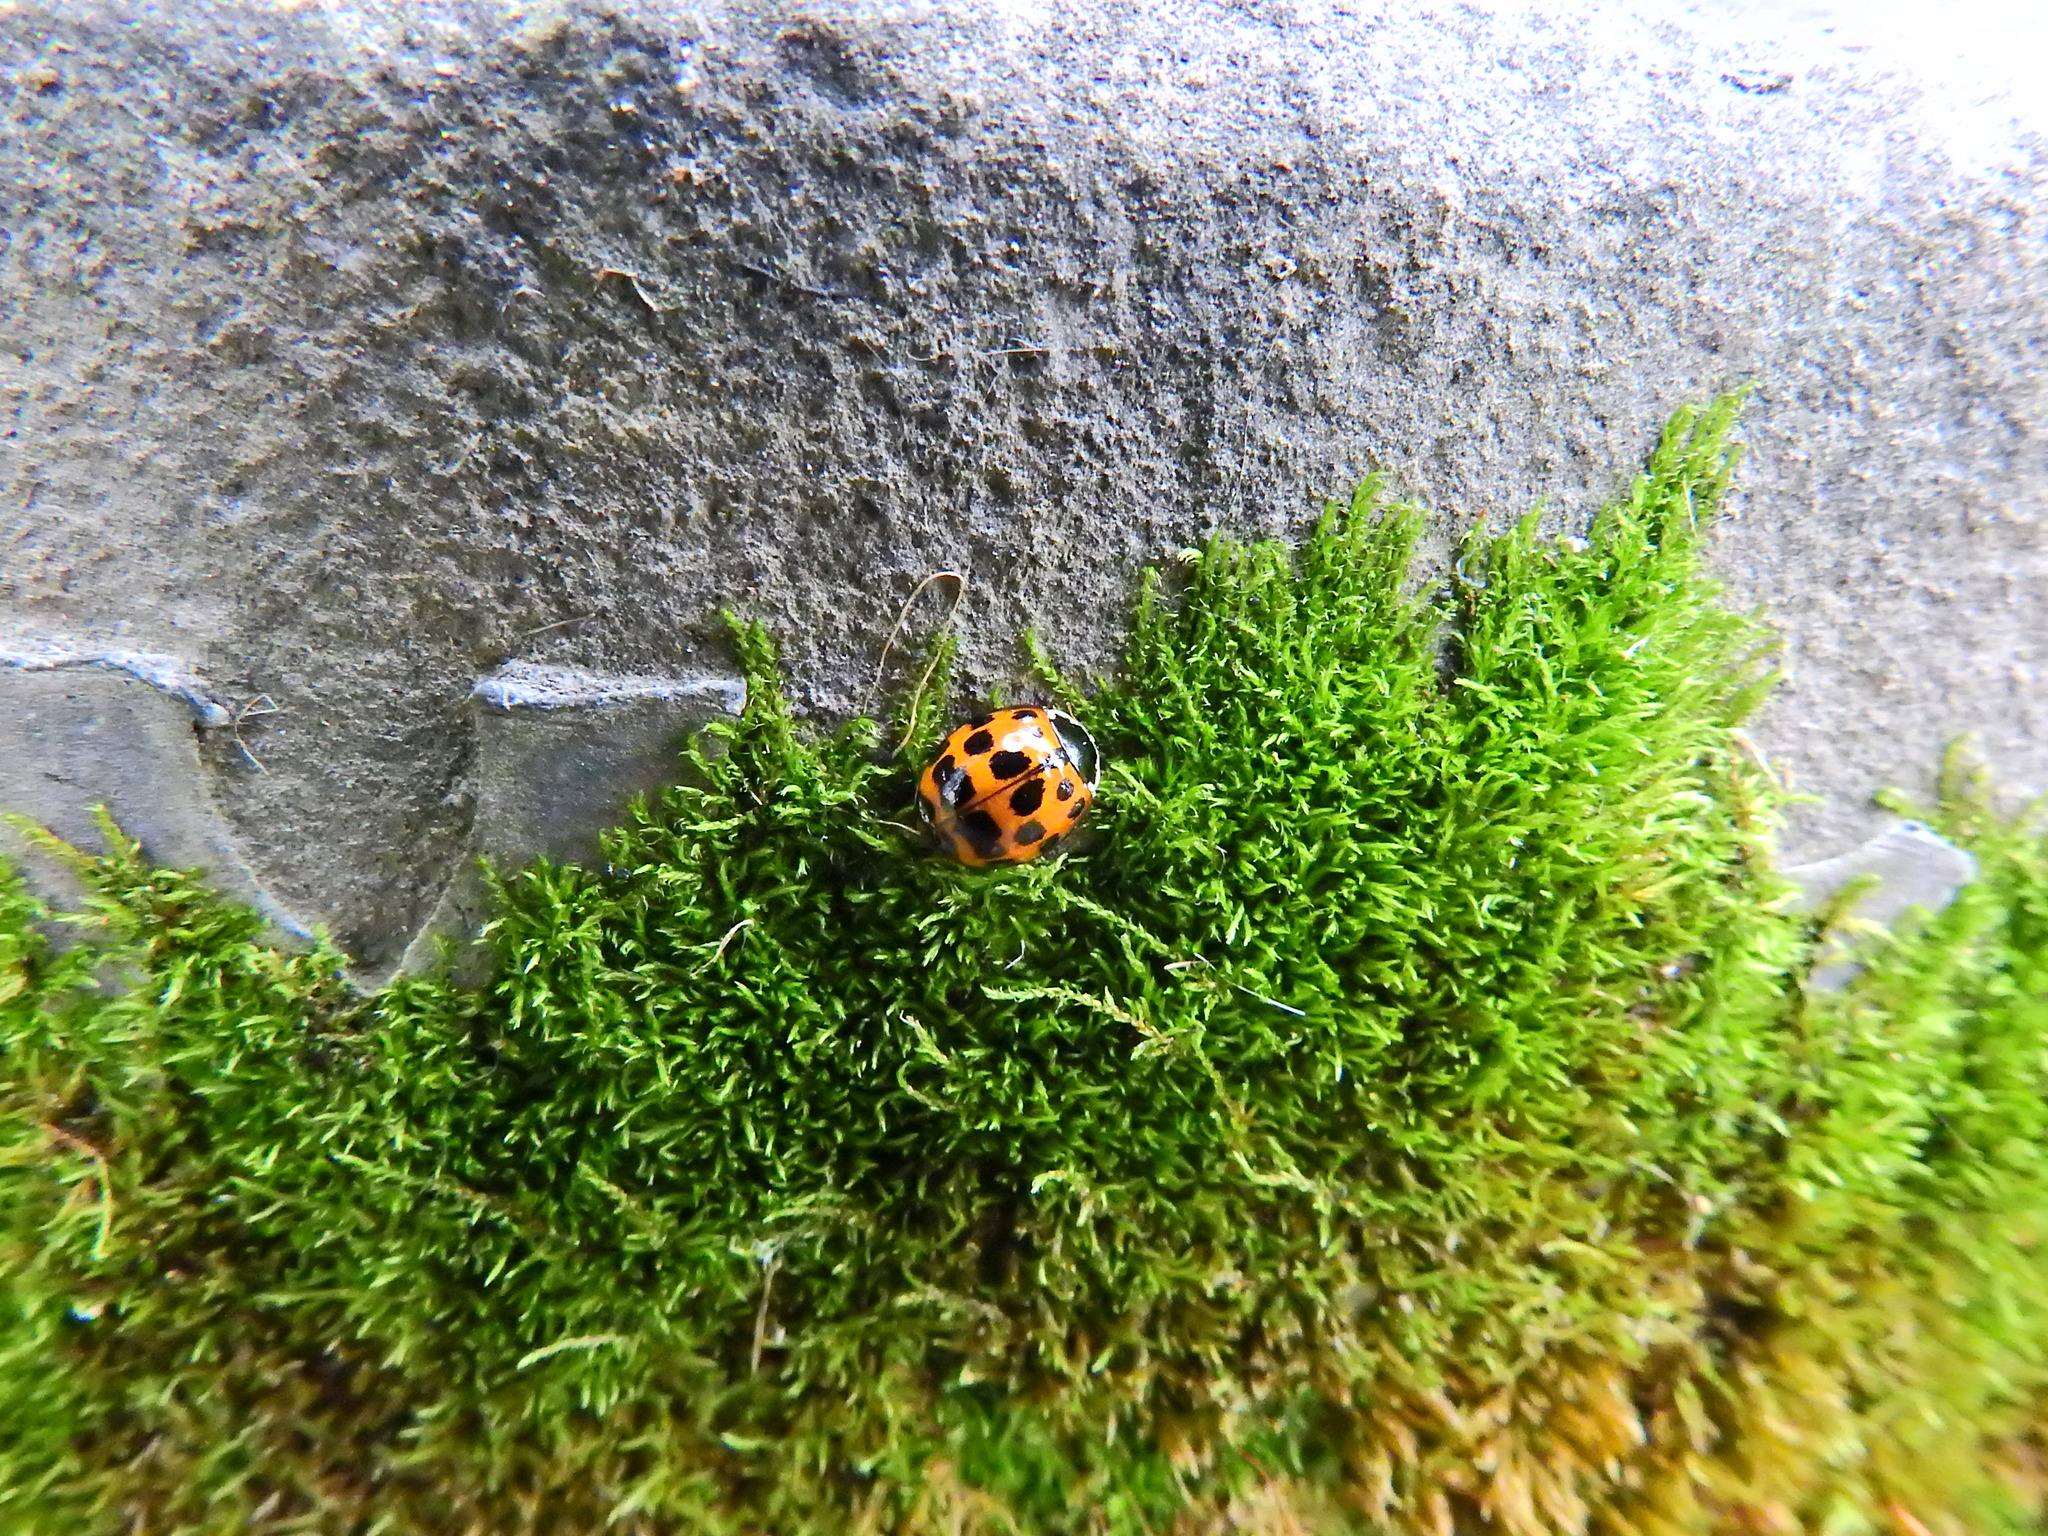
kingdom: Animalia
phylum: Arthropoda
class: Insecta
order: Coleoptera
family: Coccinellidae
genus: Harmonia
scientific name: Harmonia axyridis
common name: Harlequin ladybird
